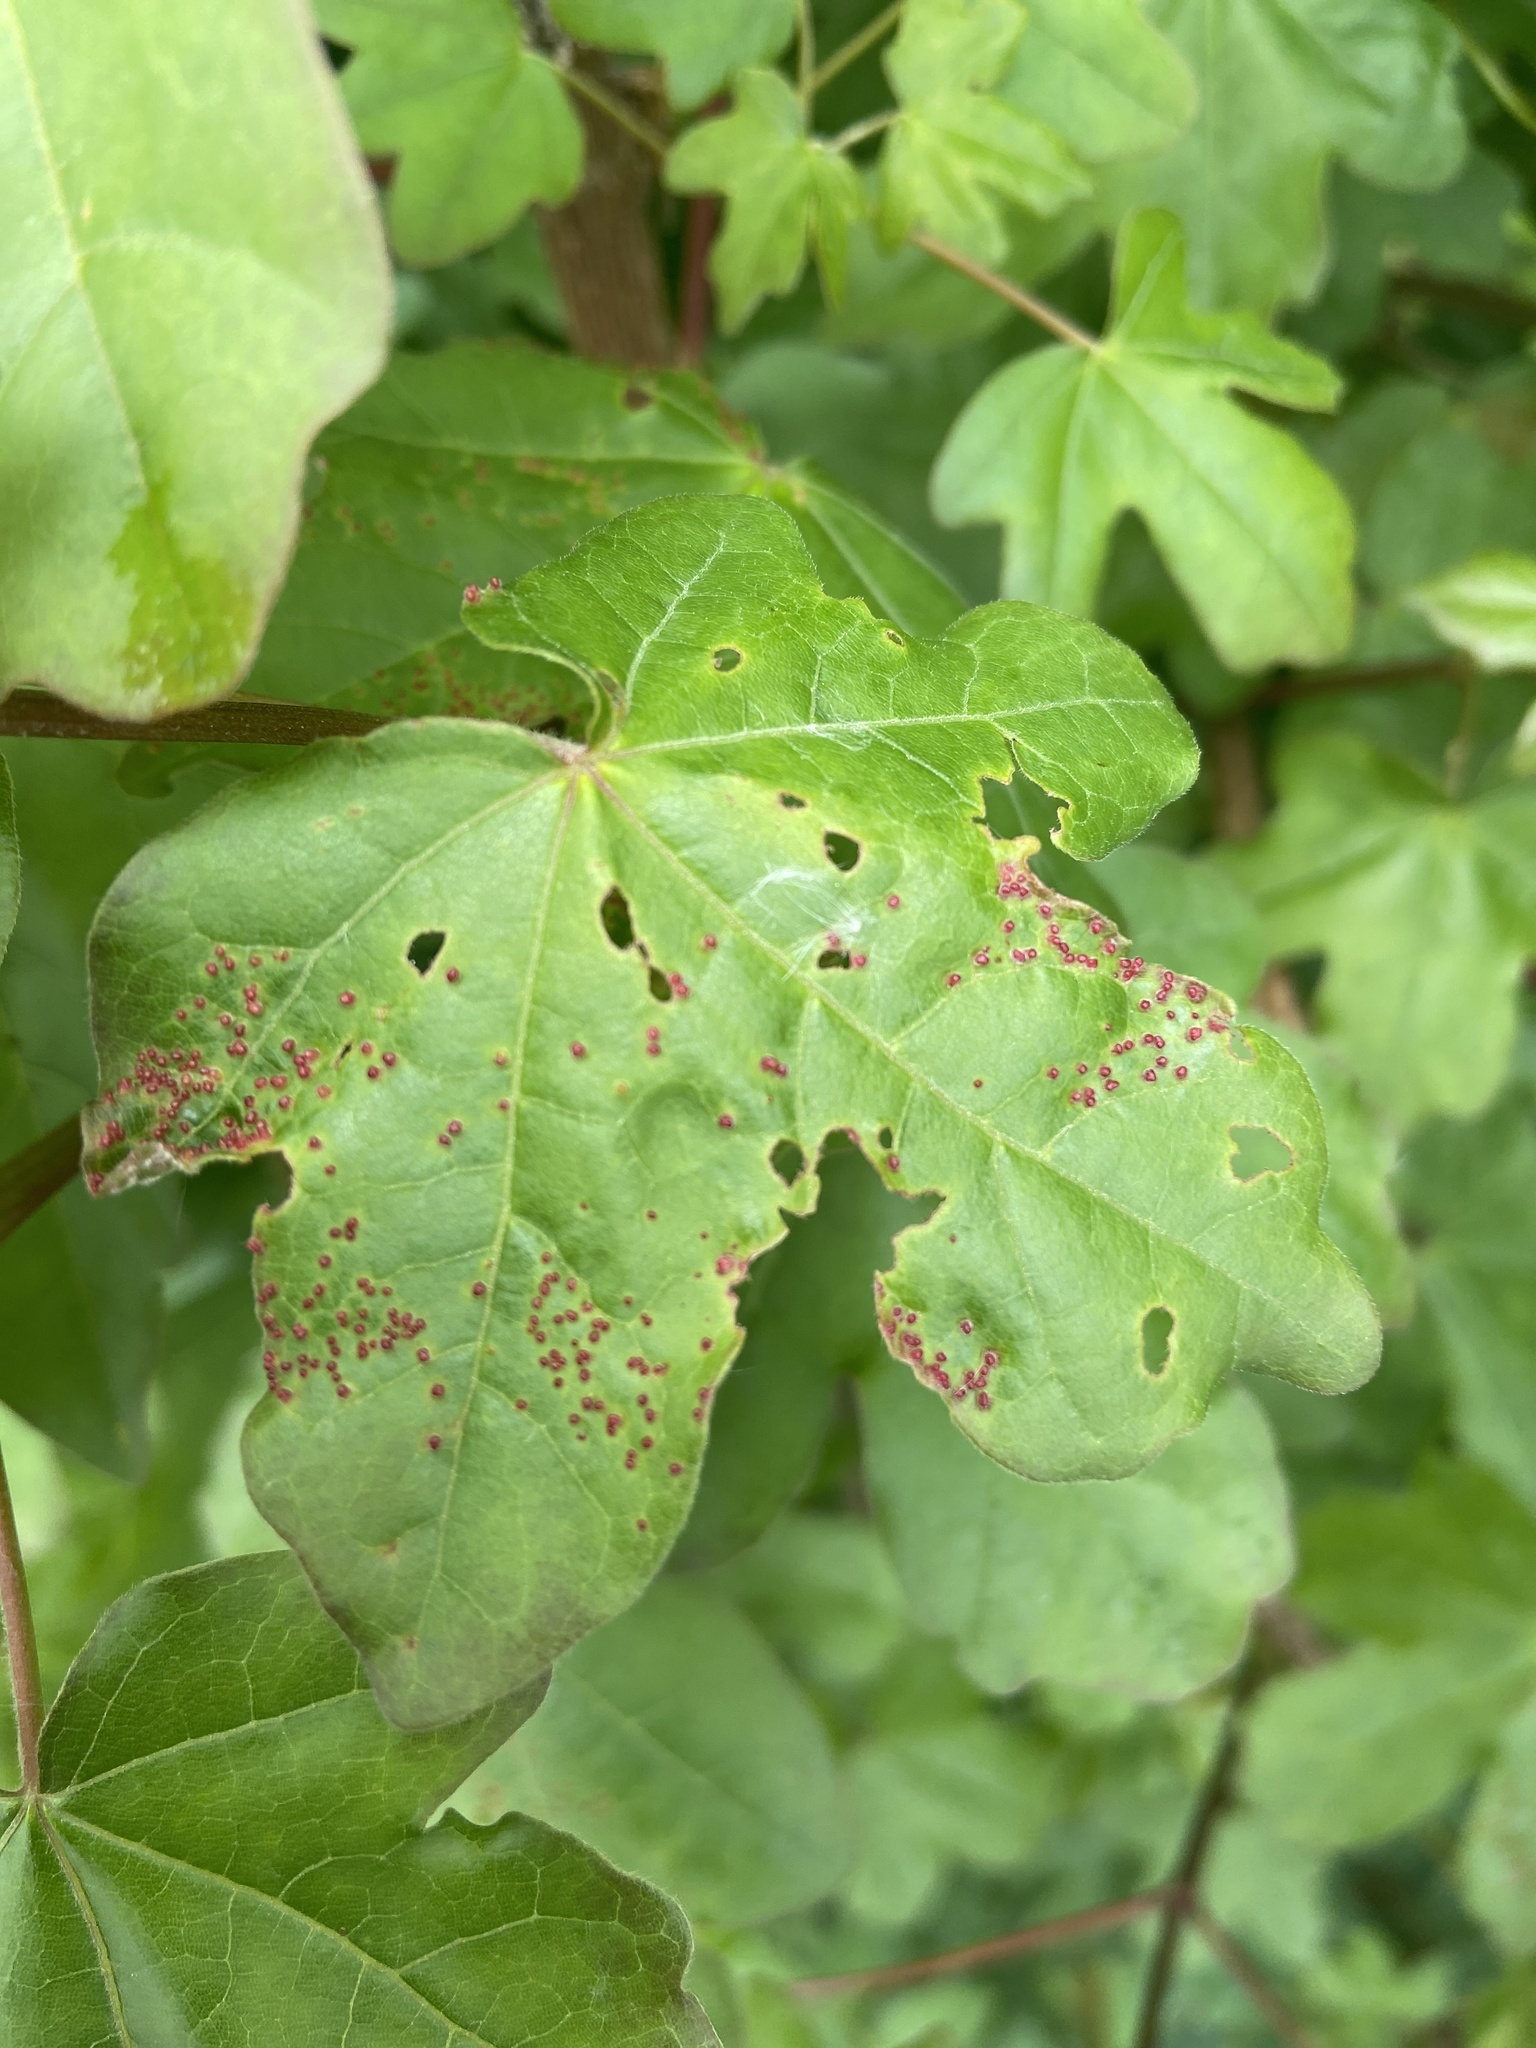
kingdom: Animalia
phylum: Arthropoda
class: Arachnida
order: Trombidiformes
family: Eriophyidae
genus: Aceria
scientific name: Aceria myriadeum
